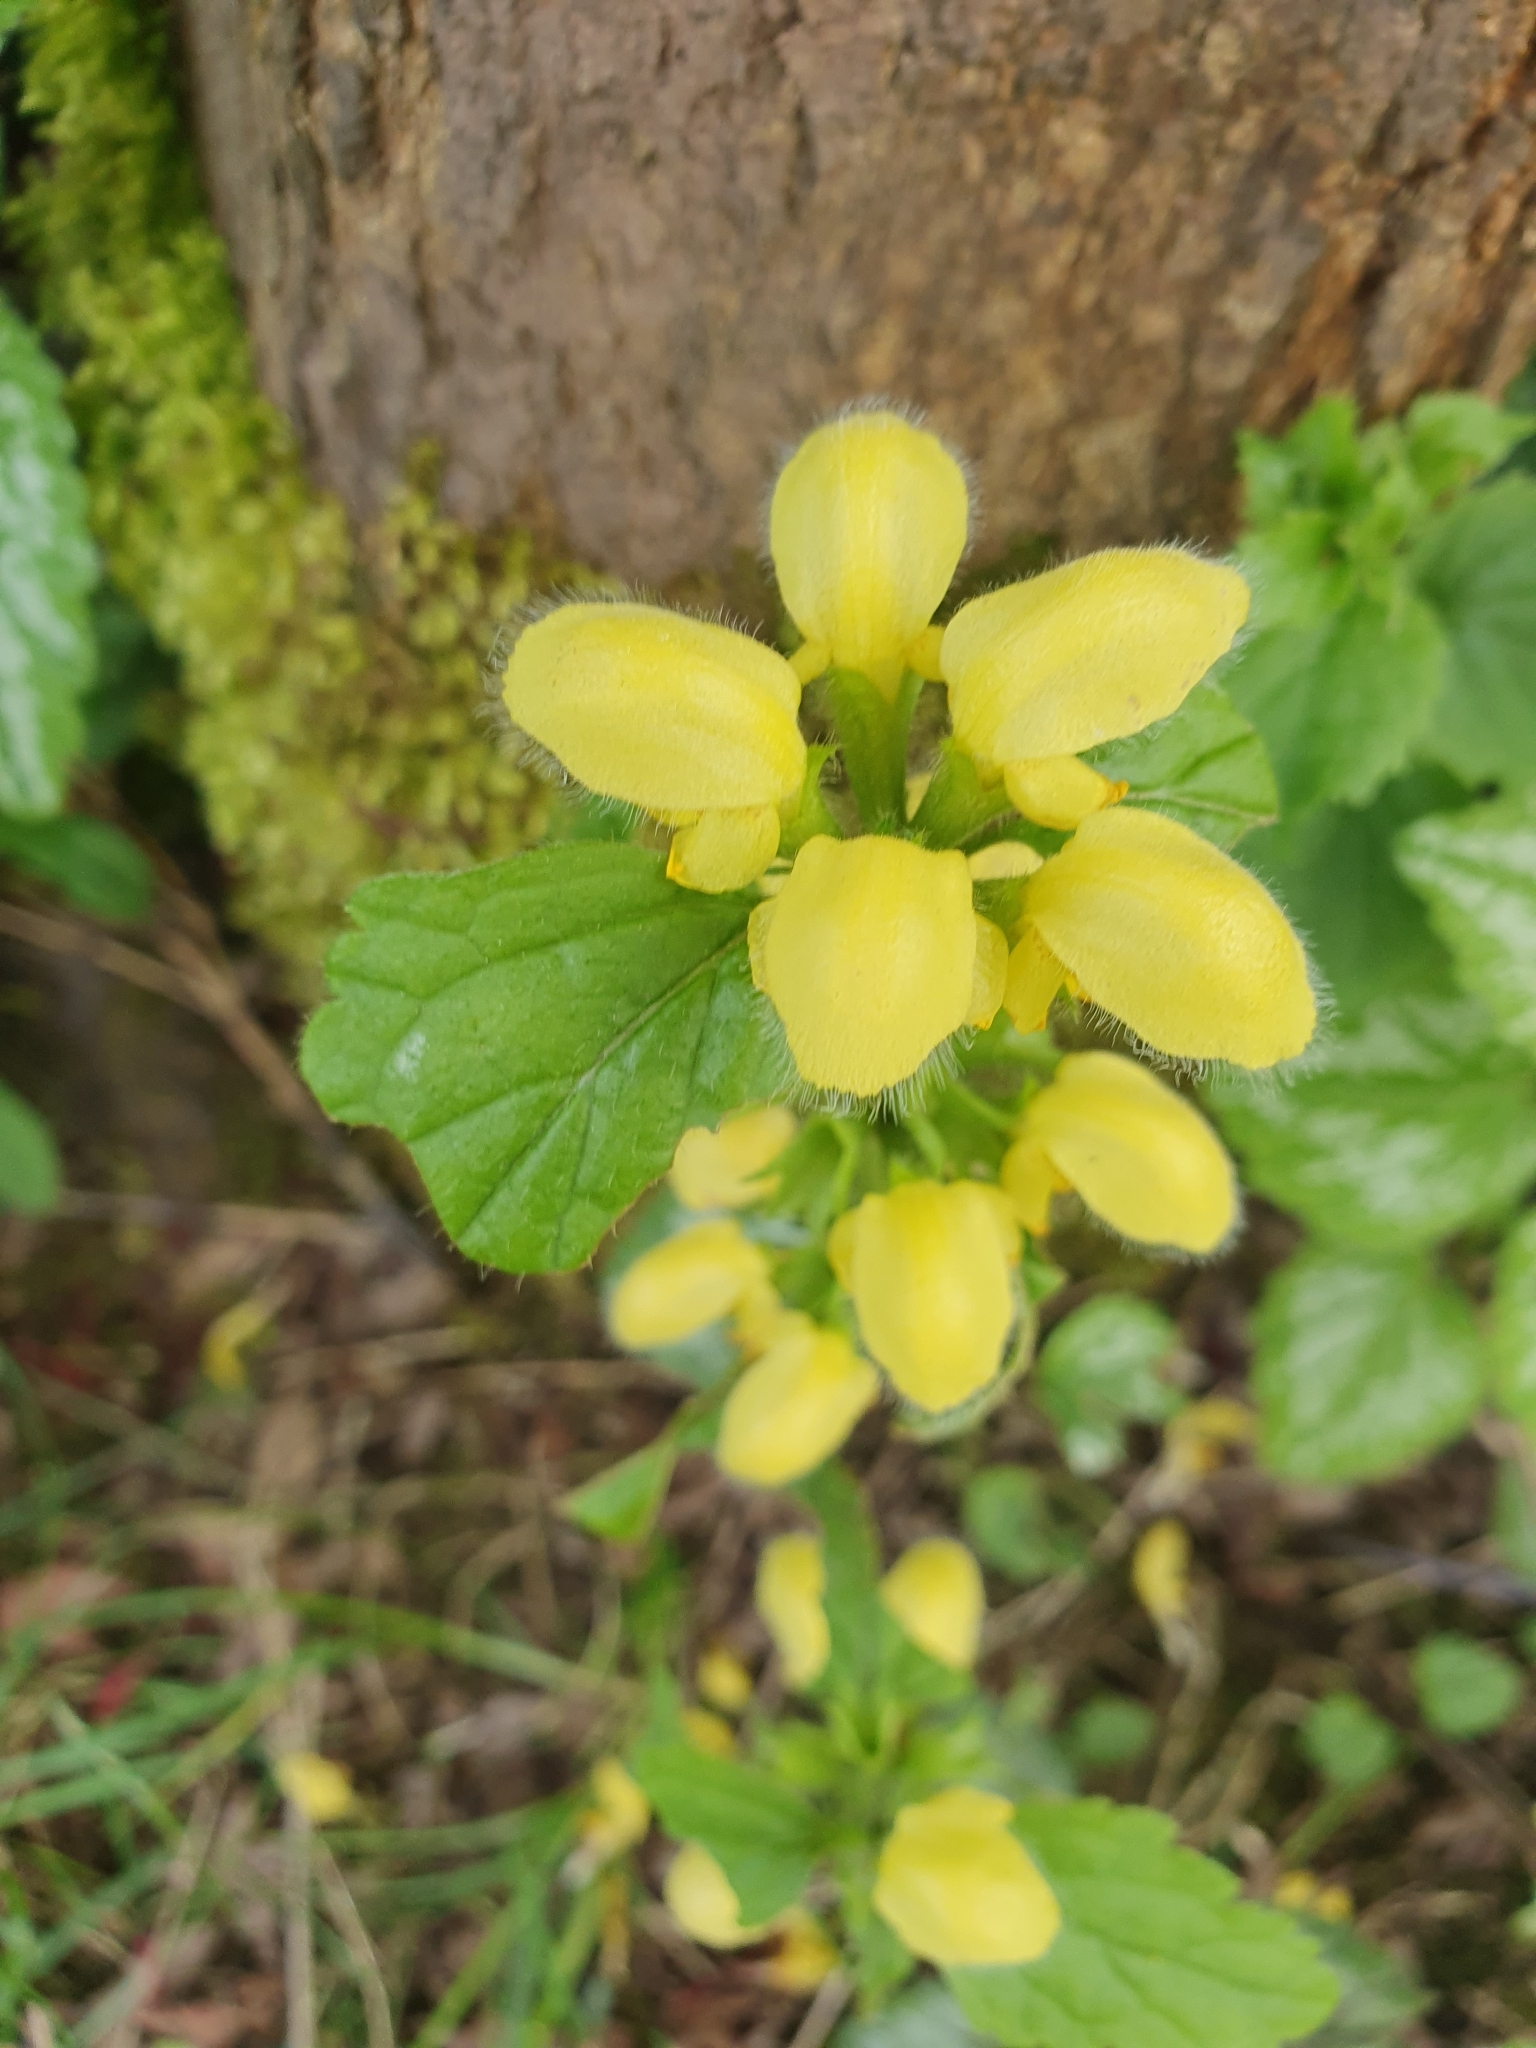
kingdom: Plantae
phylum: Tracheophyta
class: Magnoliopsida
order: Lamiales
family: Lamiaceae
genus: Lamium
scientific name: Lamium galeobdolon
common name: Yellow archangel
